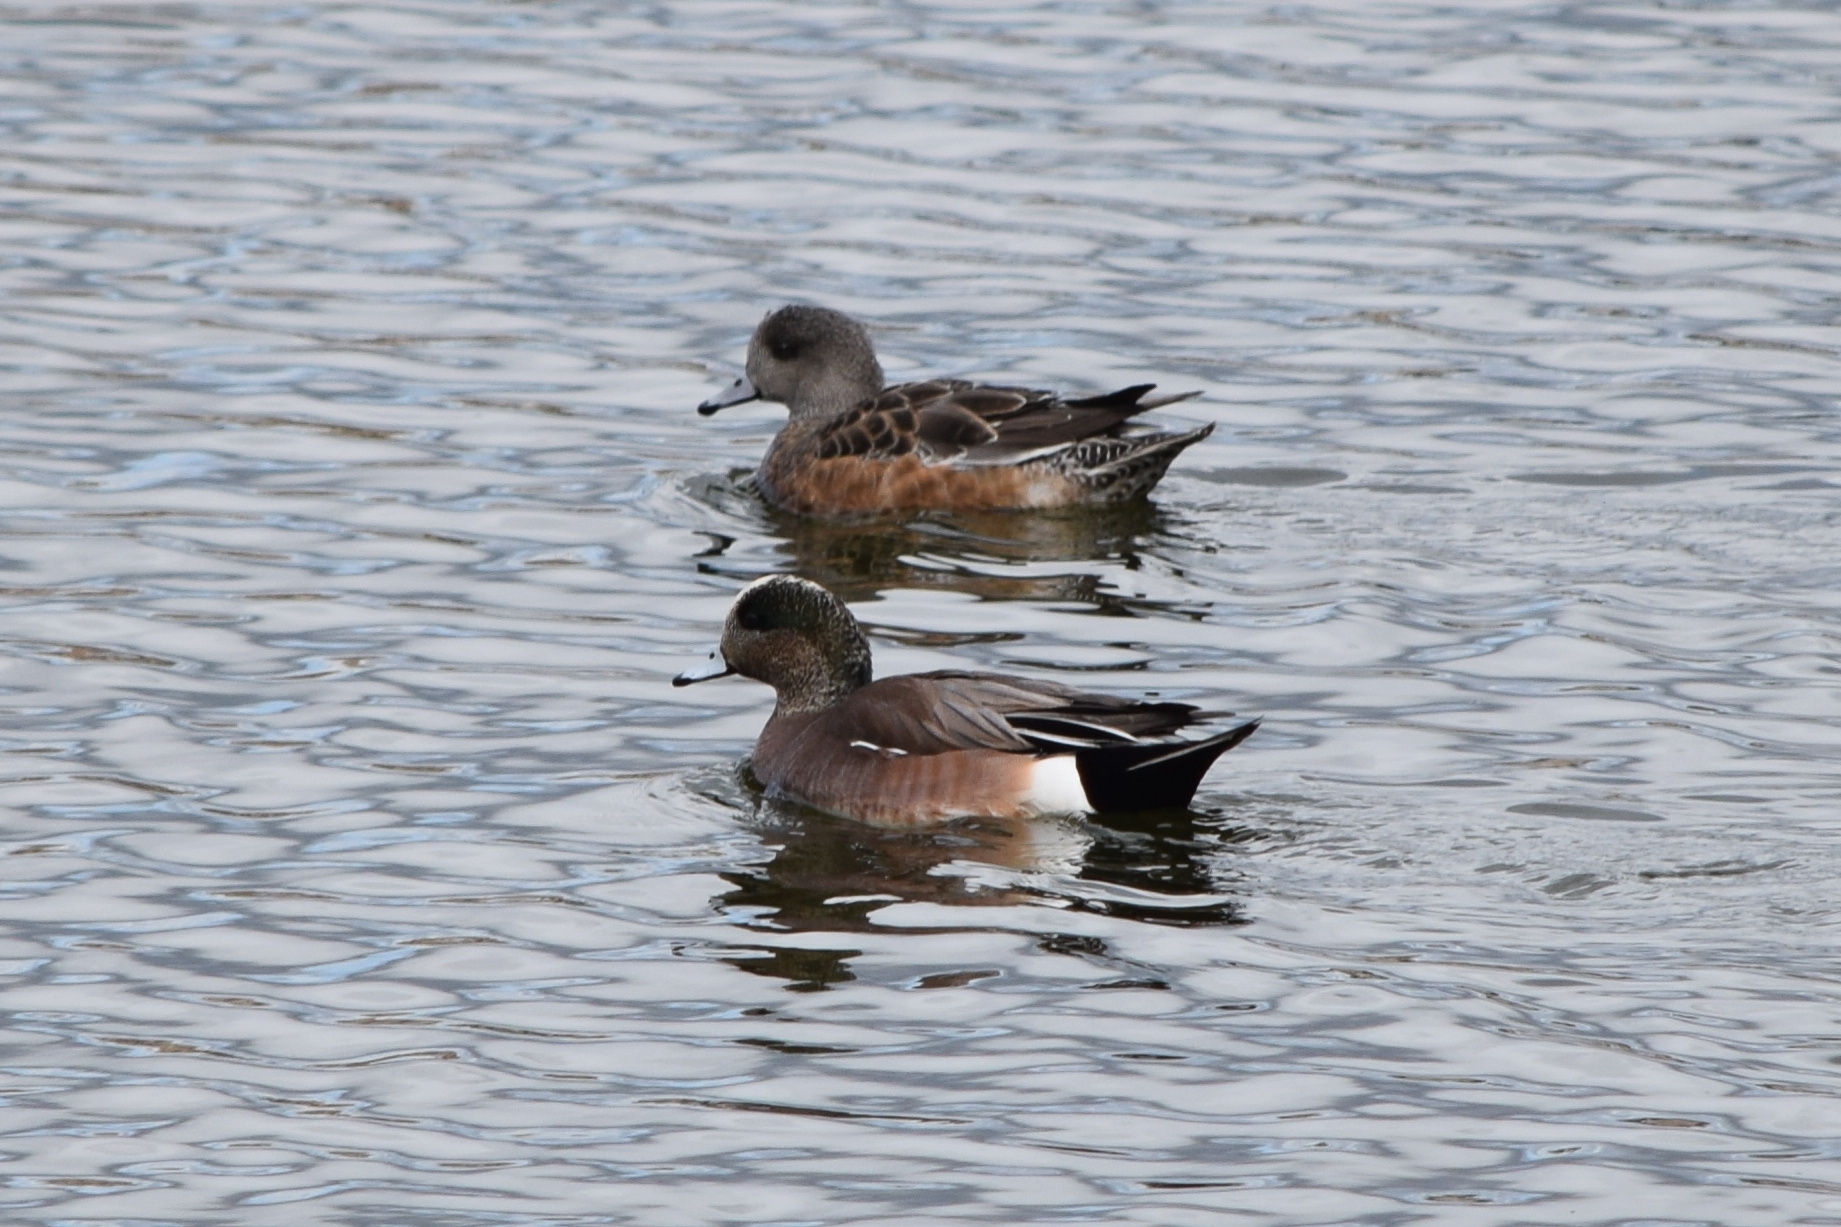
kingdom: Animalia
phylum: Chordata
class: Aves
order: Anseriformes
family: Anatidae
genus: Mareca
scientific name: Mareca americana
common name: American wigeon
